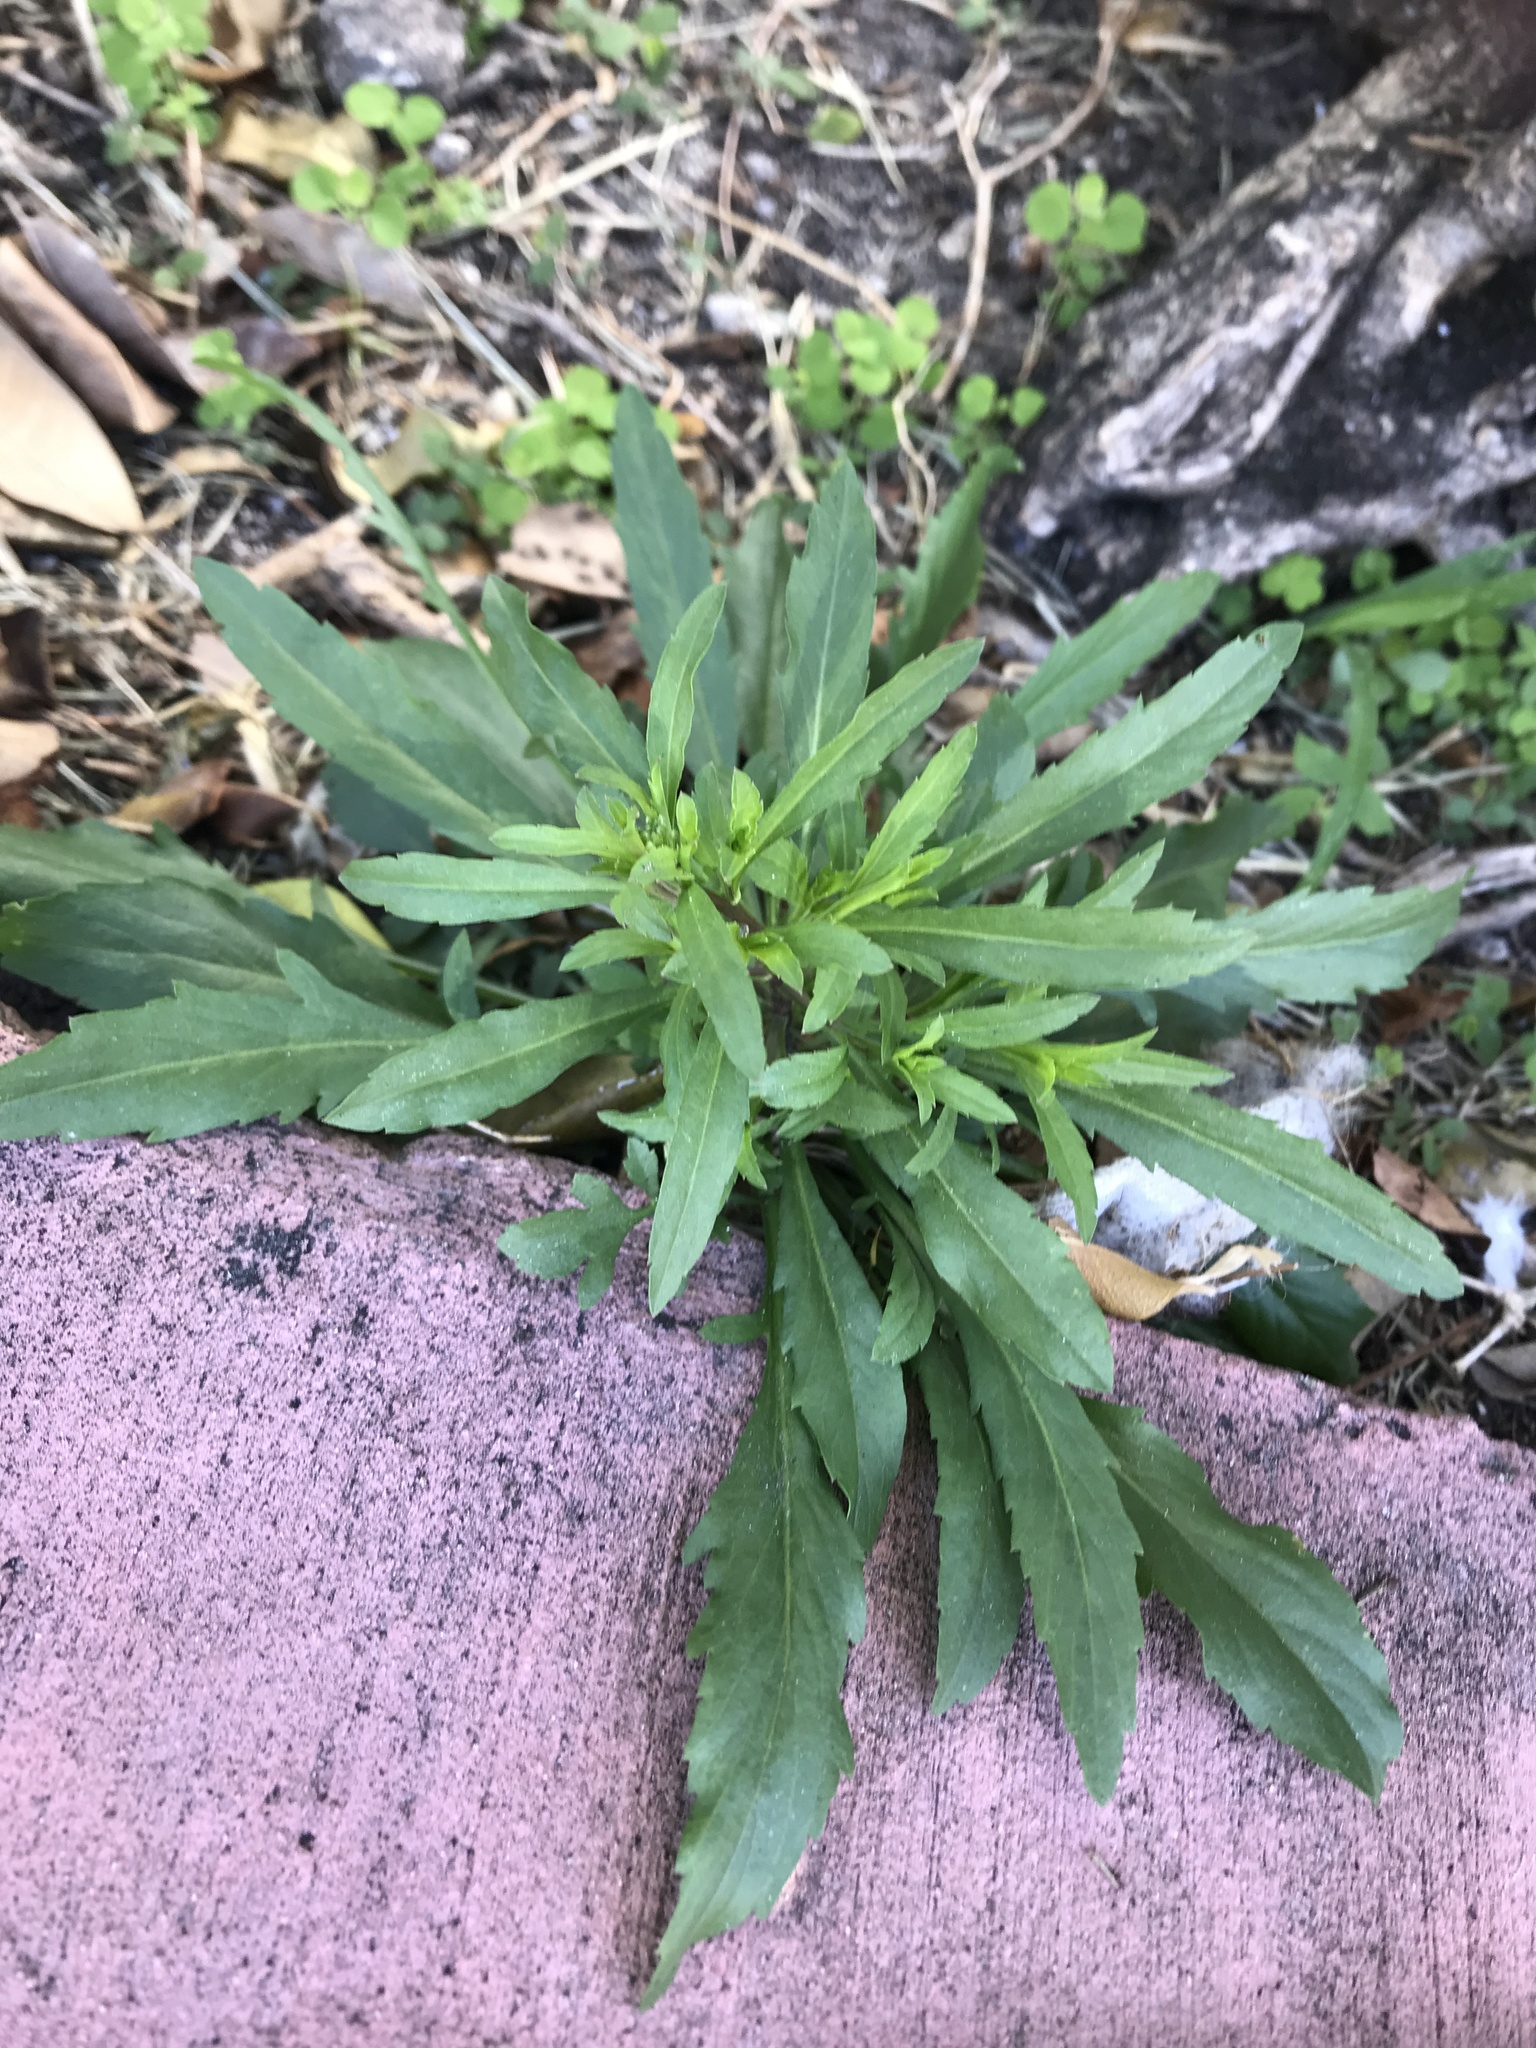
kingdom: Plantae
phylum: Tracheophyta
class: Magnoliopsida
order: Asterales
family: Asteraceae
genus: Erigeron
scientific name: Erigeron canadensis
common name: Canadian fleabane
